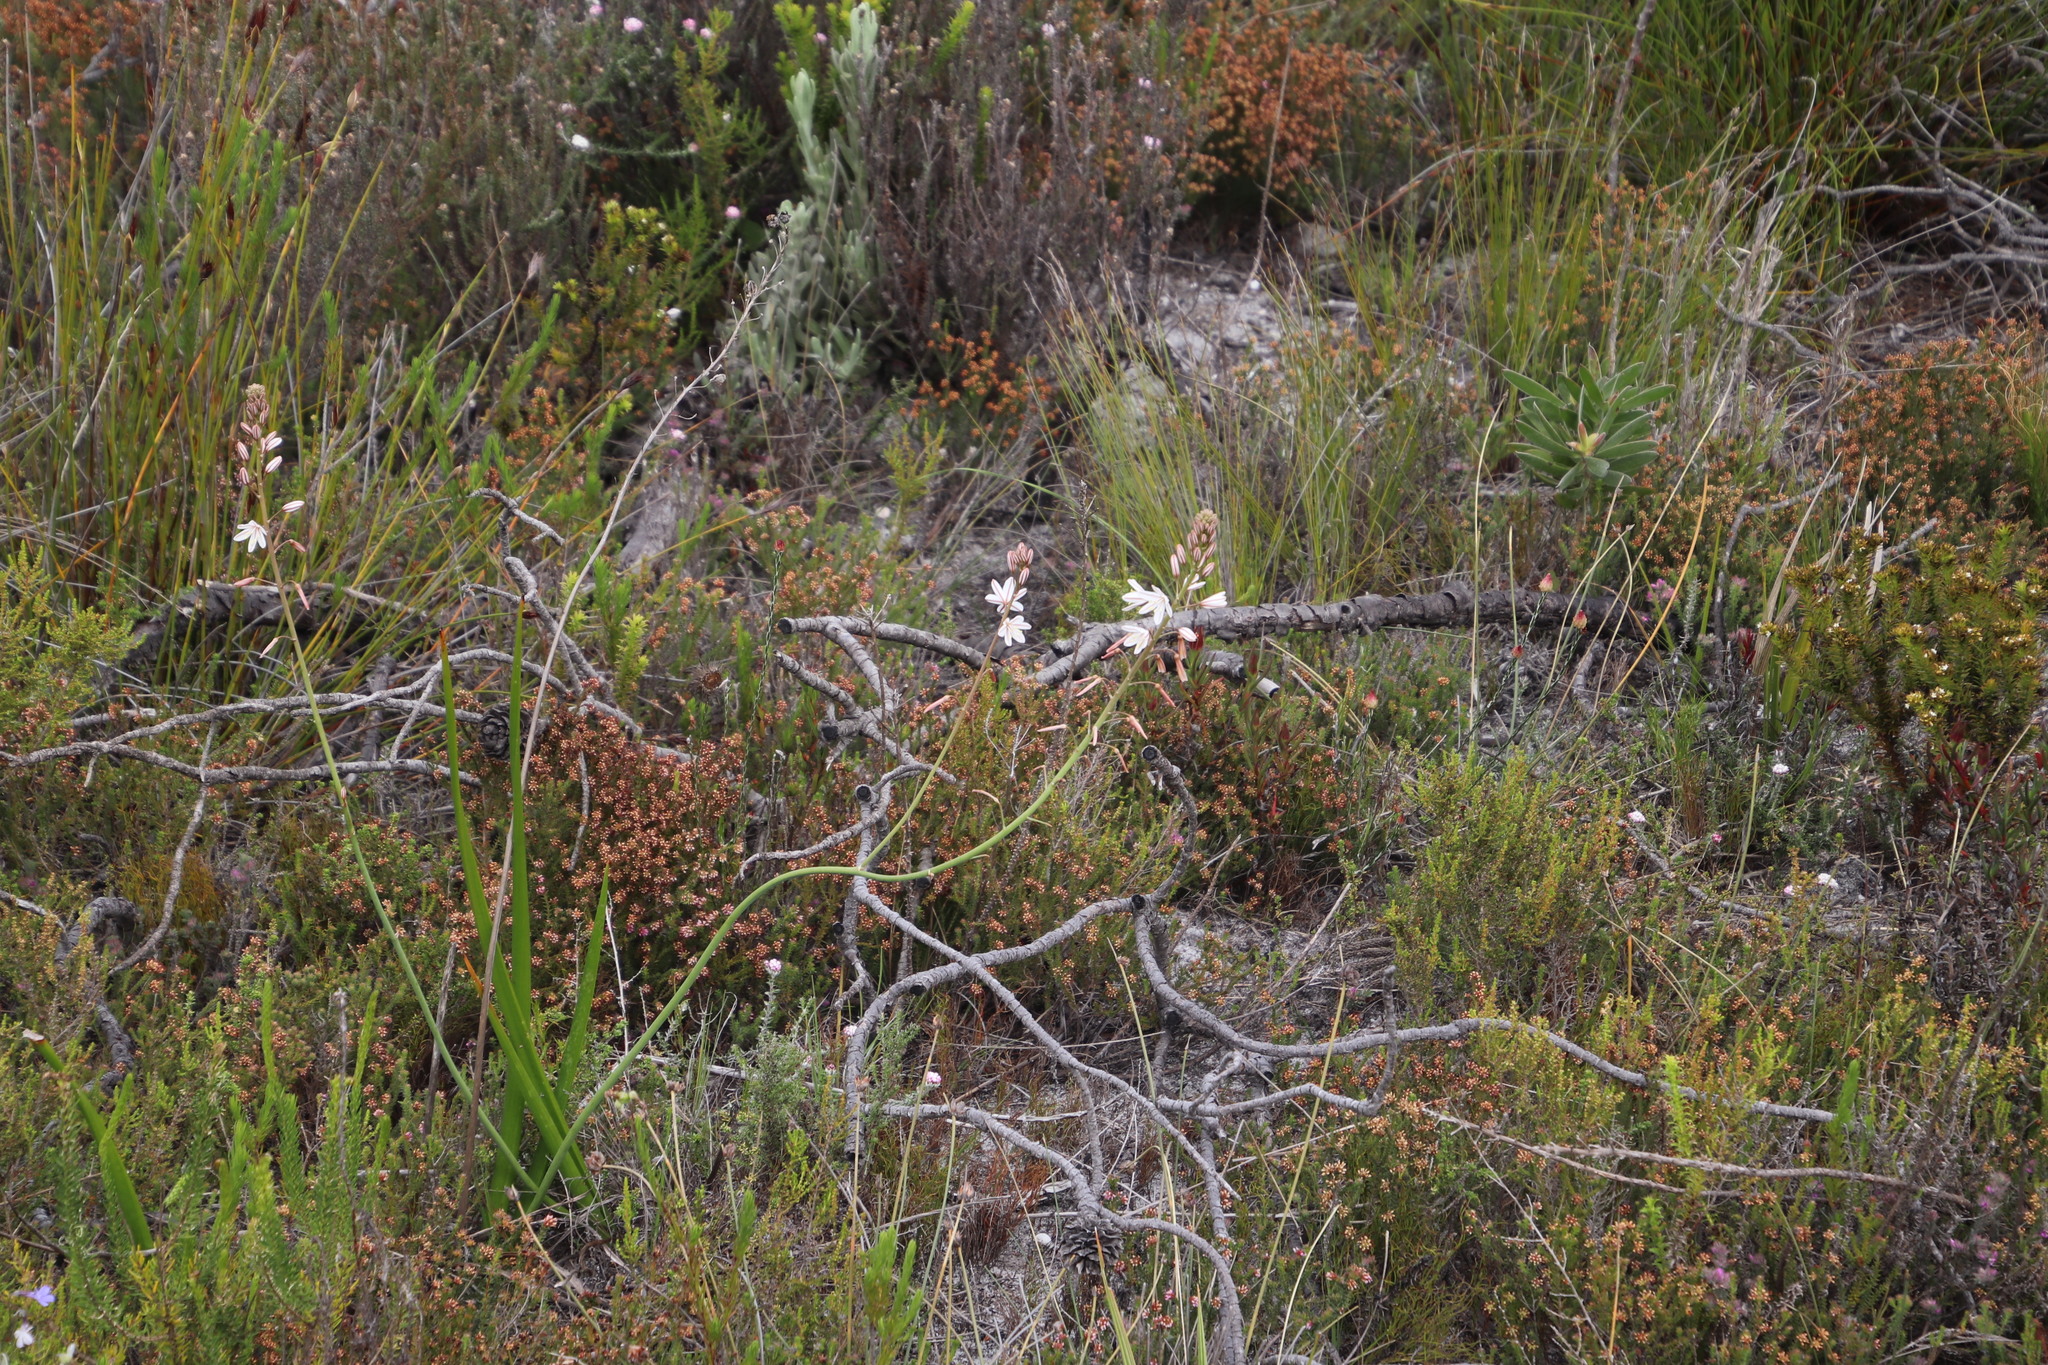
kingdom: Plantae
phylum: Tracheophyta
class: Liliopsida
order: Asparagales
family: Asphodelaceae
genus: Trachyandra
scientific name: Trachyandra hirsuta
